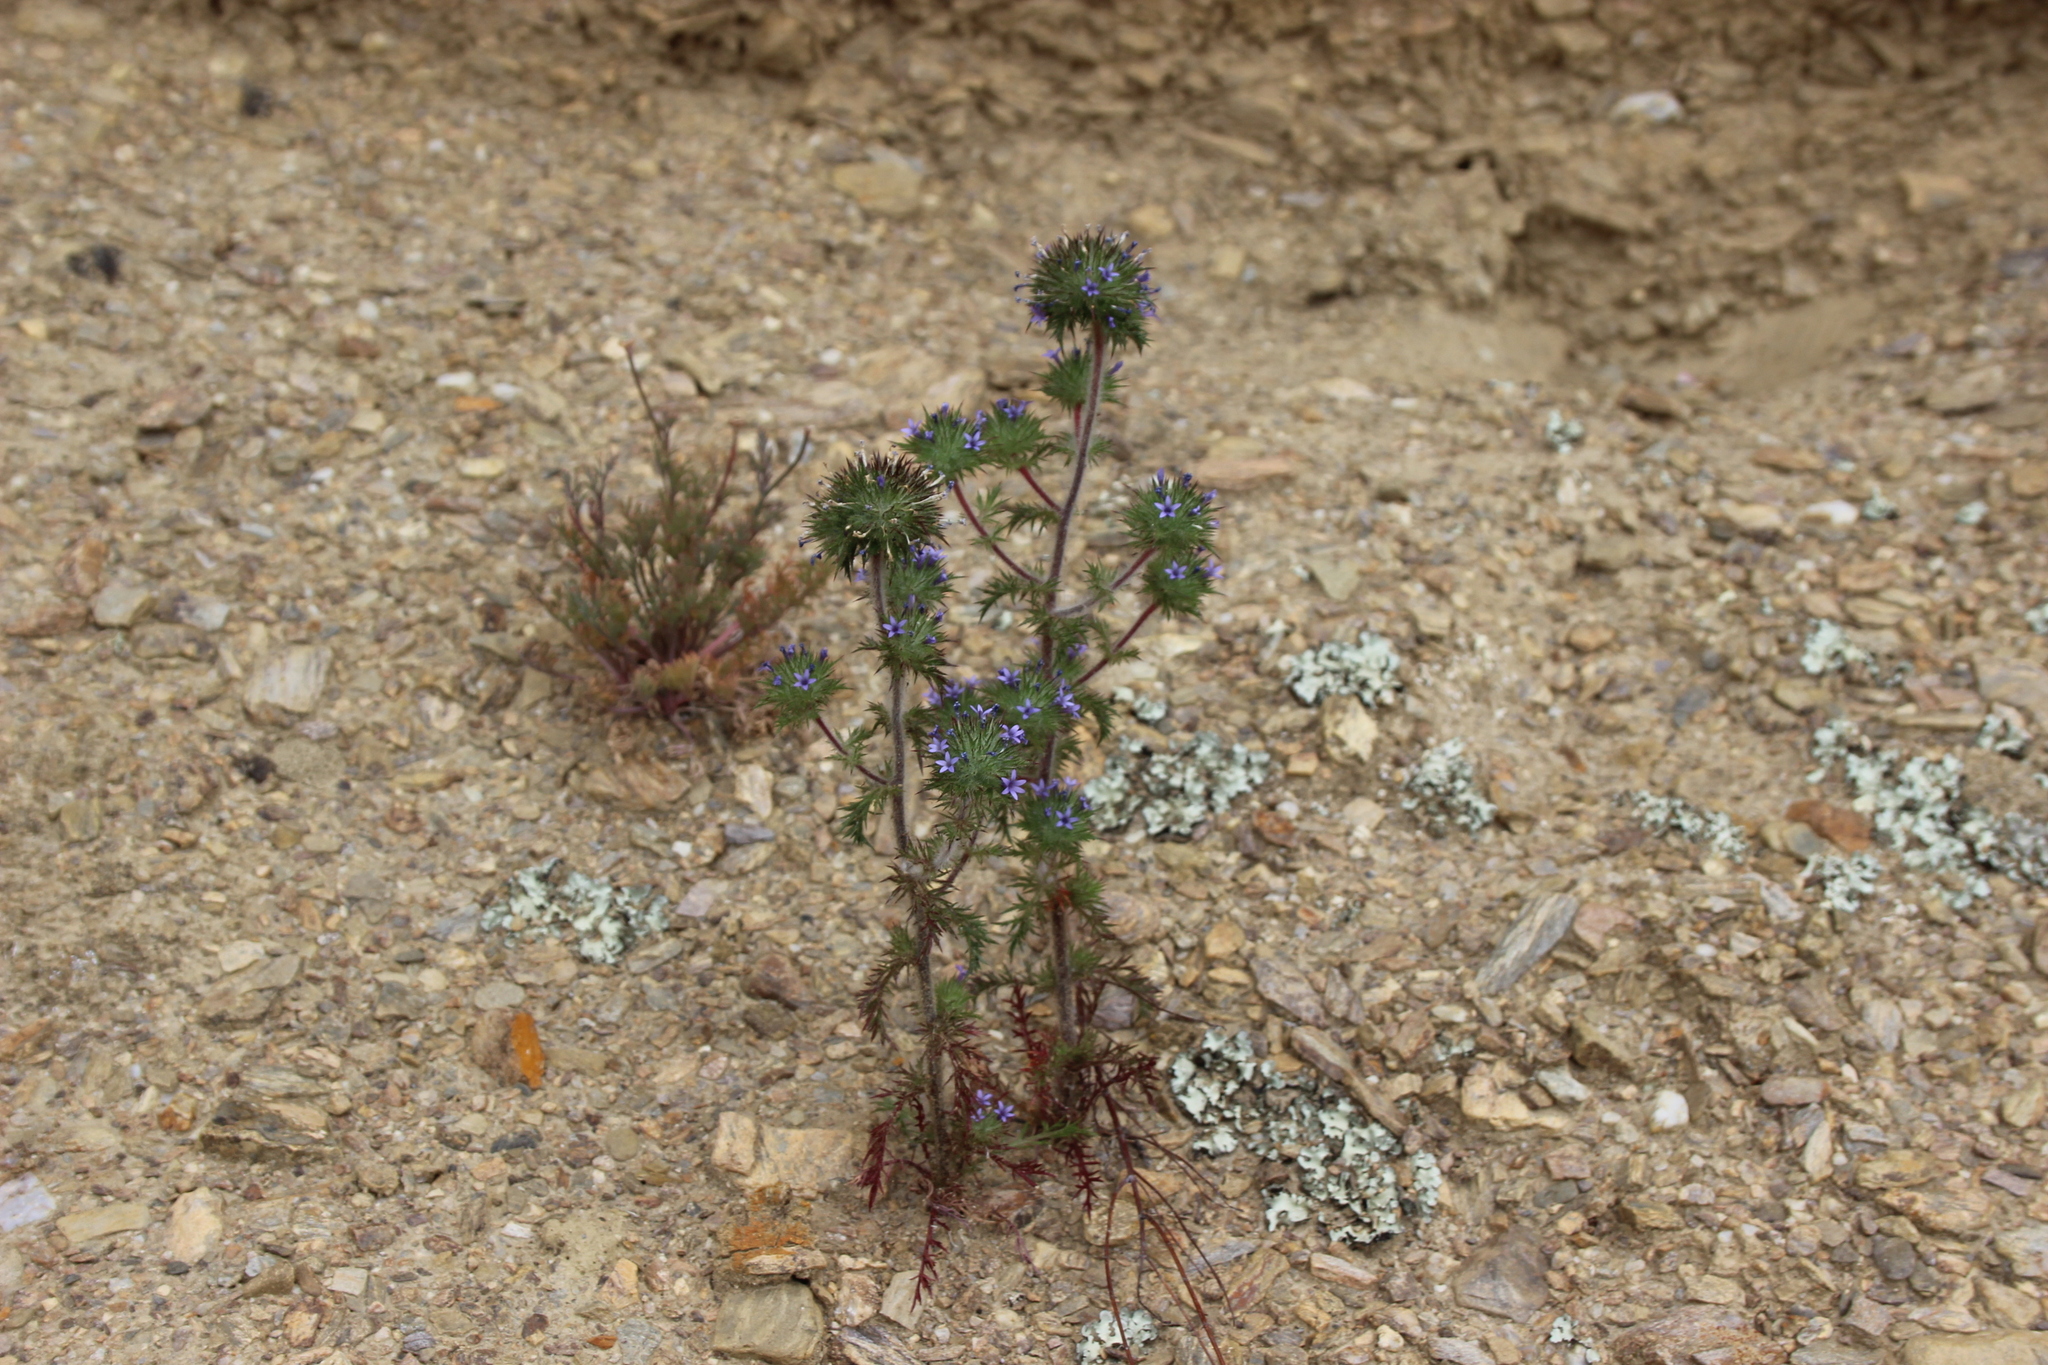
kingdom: Plantae
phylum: Tracheophyta
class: Magnoliopsida
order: Ericales
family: Polemoniaceae
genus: Navarretia
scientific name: Navarretia squarrosa
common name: Skunkweed
